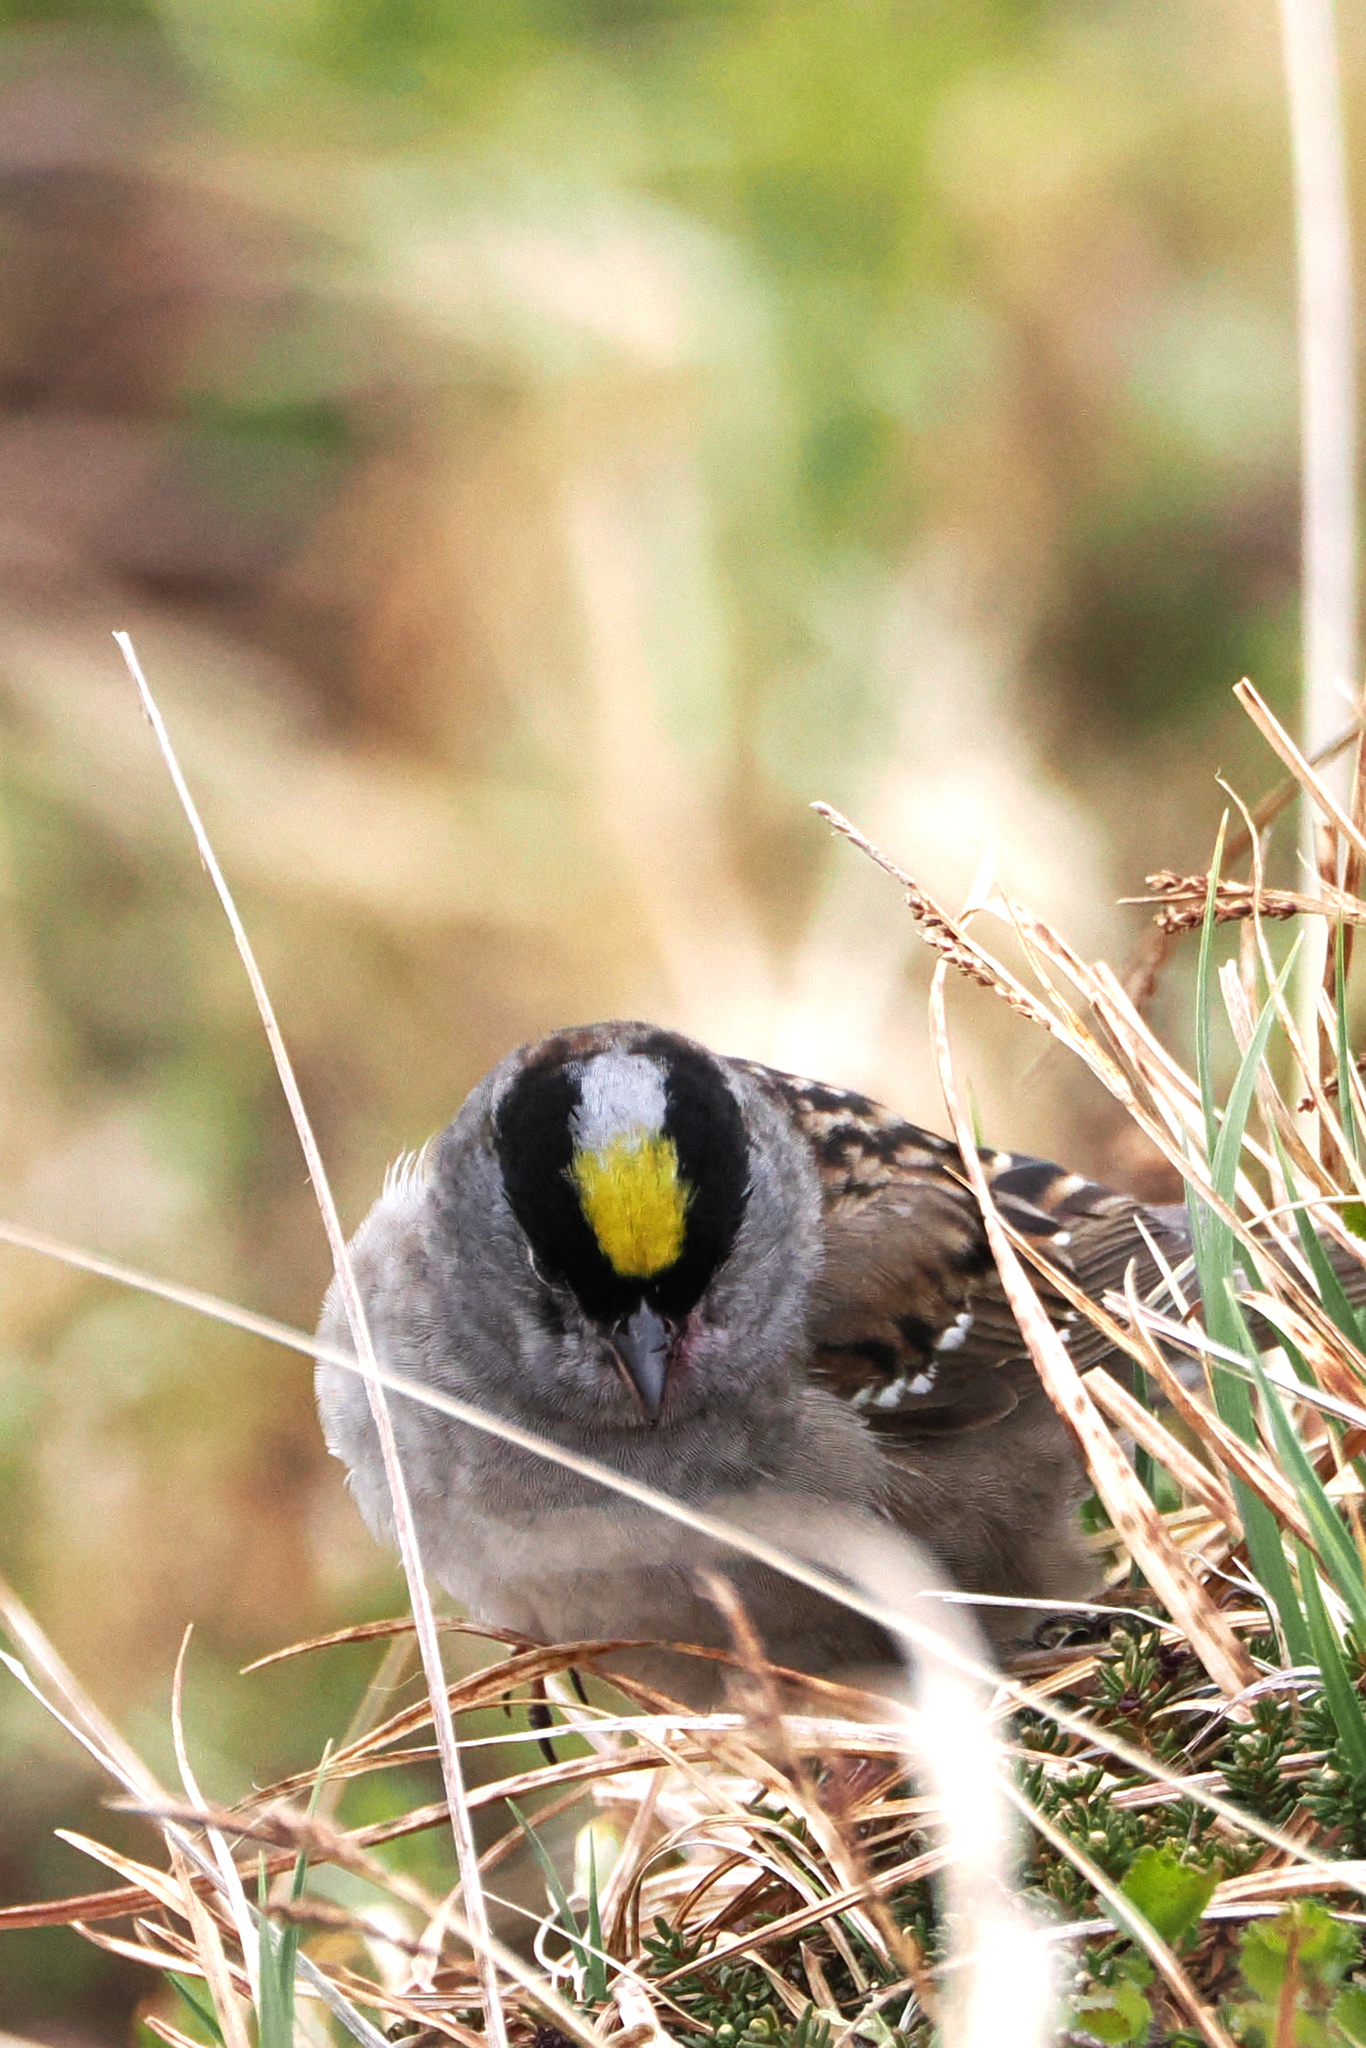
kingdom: Animalia
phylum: Chordata
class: Aves
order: Passeriformes
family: Passerellidae
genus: Zonotrichia
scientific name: Zonotrichia atricapilla
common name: Golden-crowned sparrow
